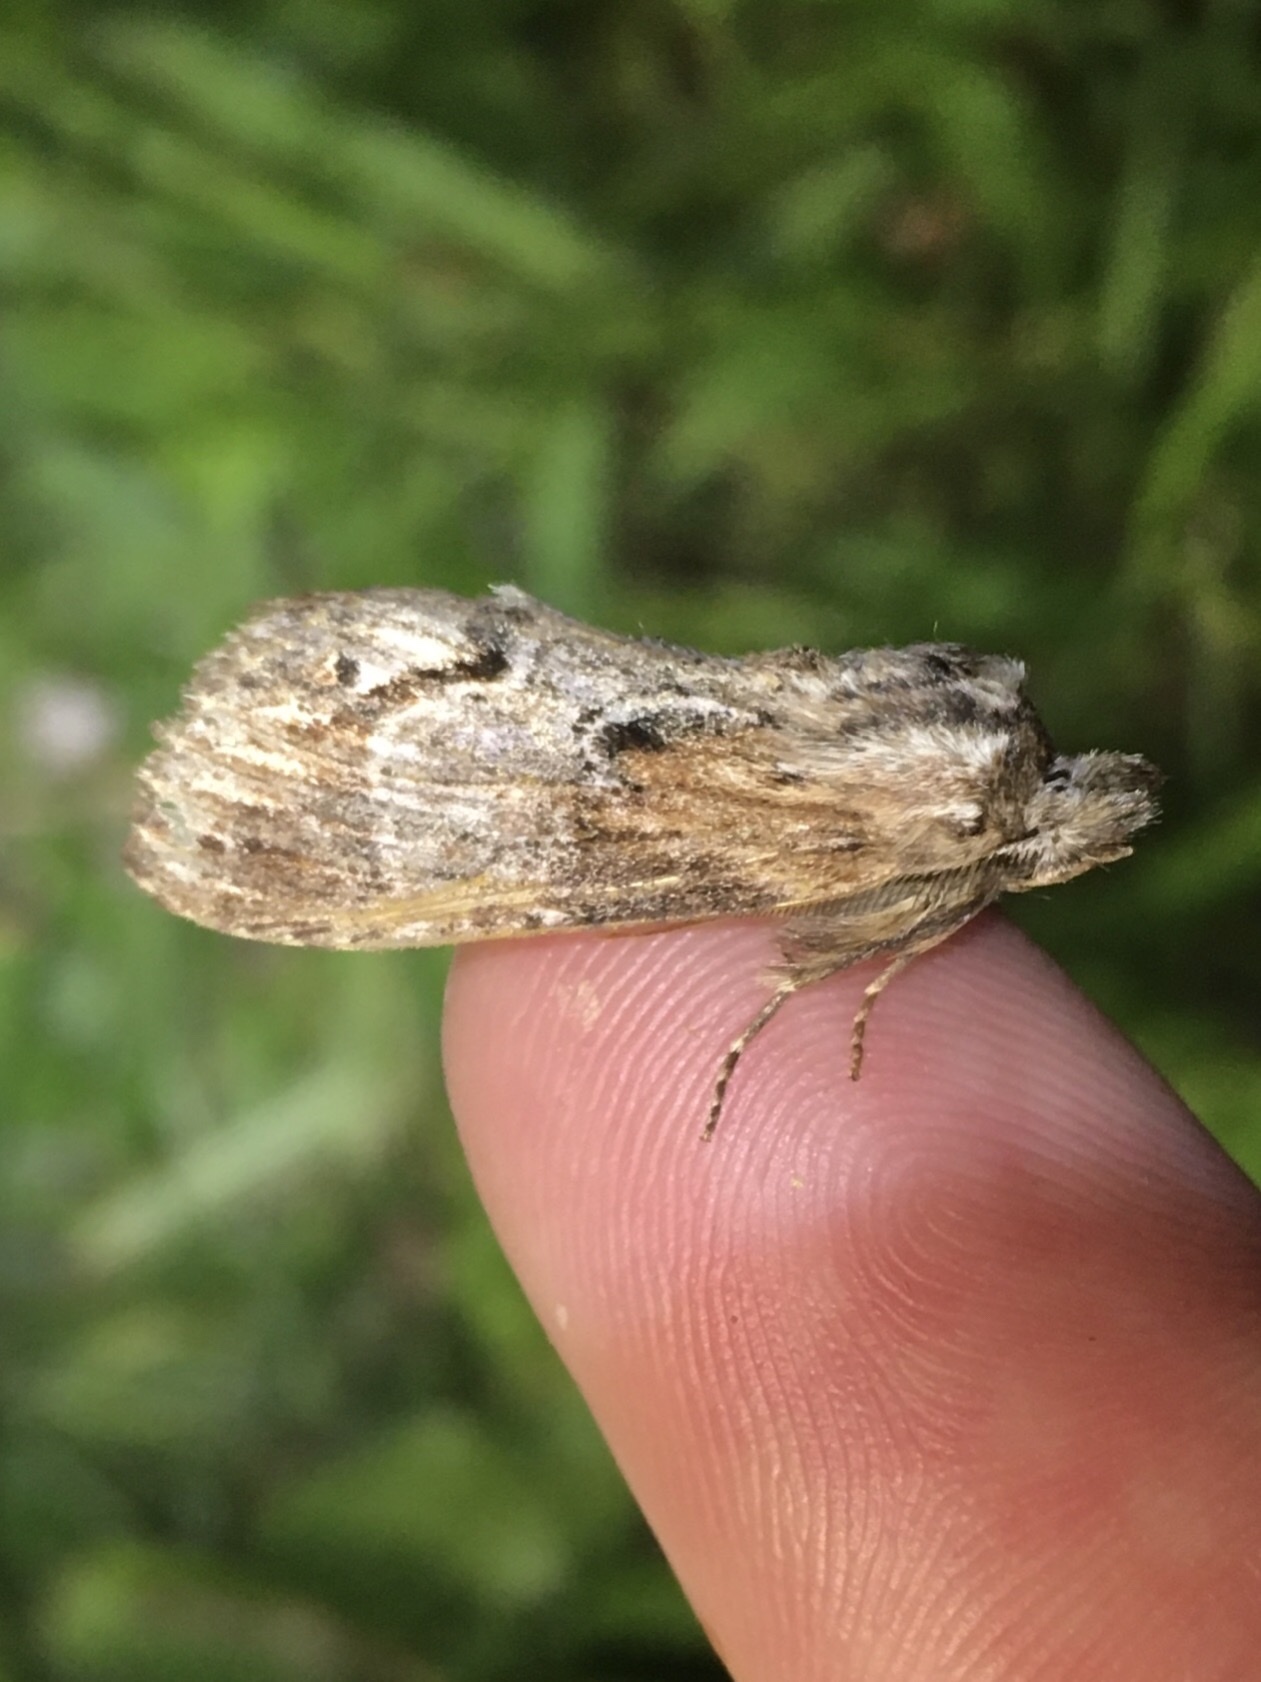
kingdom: Animalia
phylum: Arthropoda
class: Insecta
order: Lepidoptera
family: Notodontidae
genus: Dasylophia
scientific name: Dasylophia thyatiroides
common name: Gray-patched prominent
